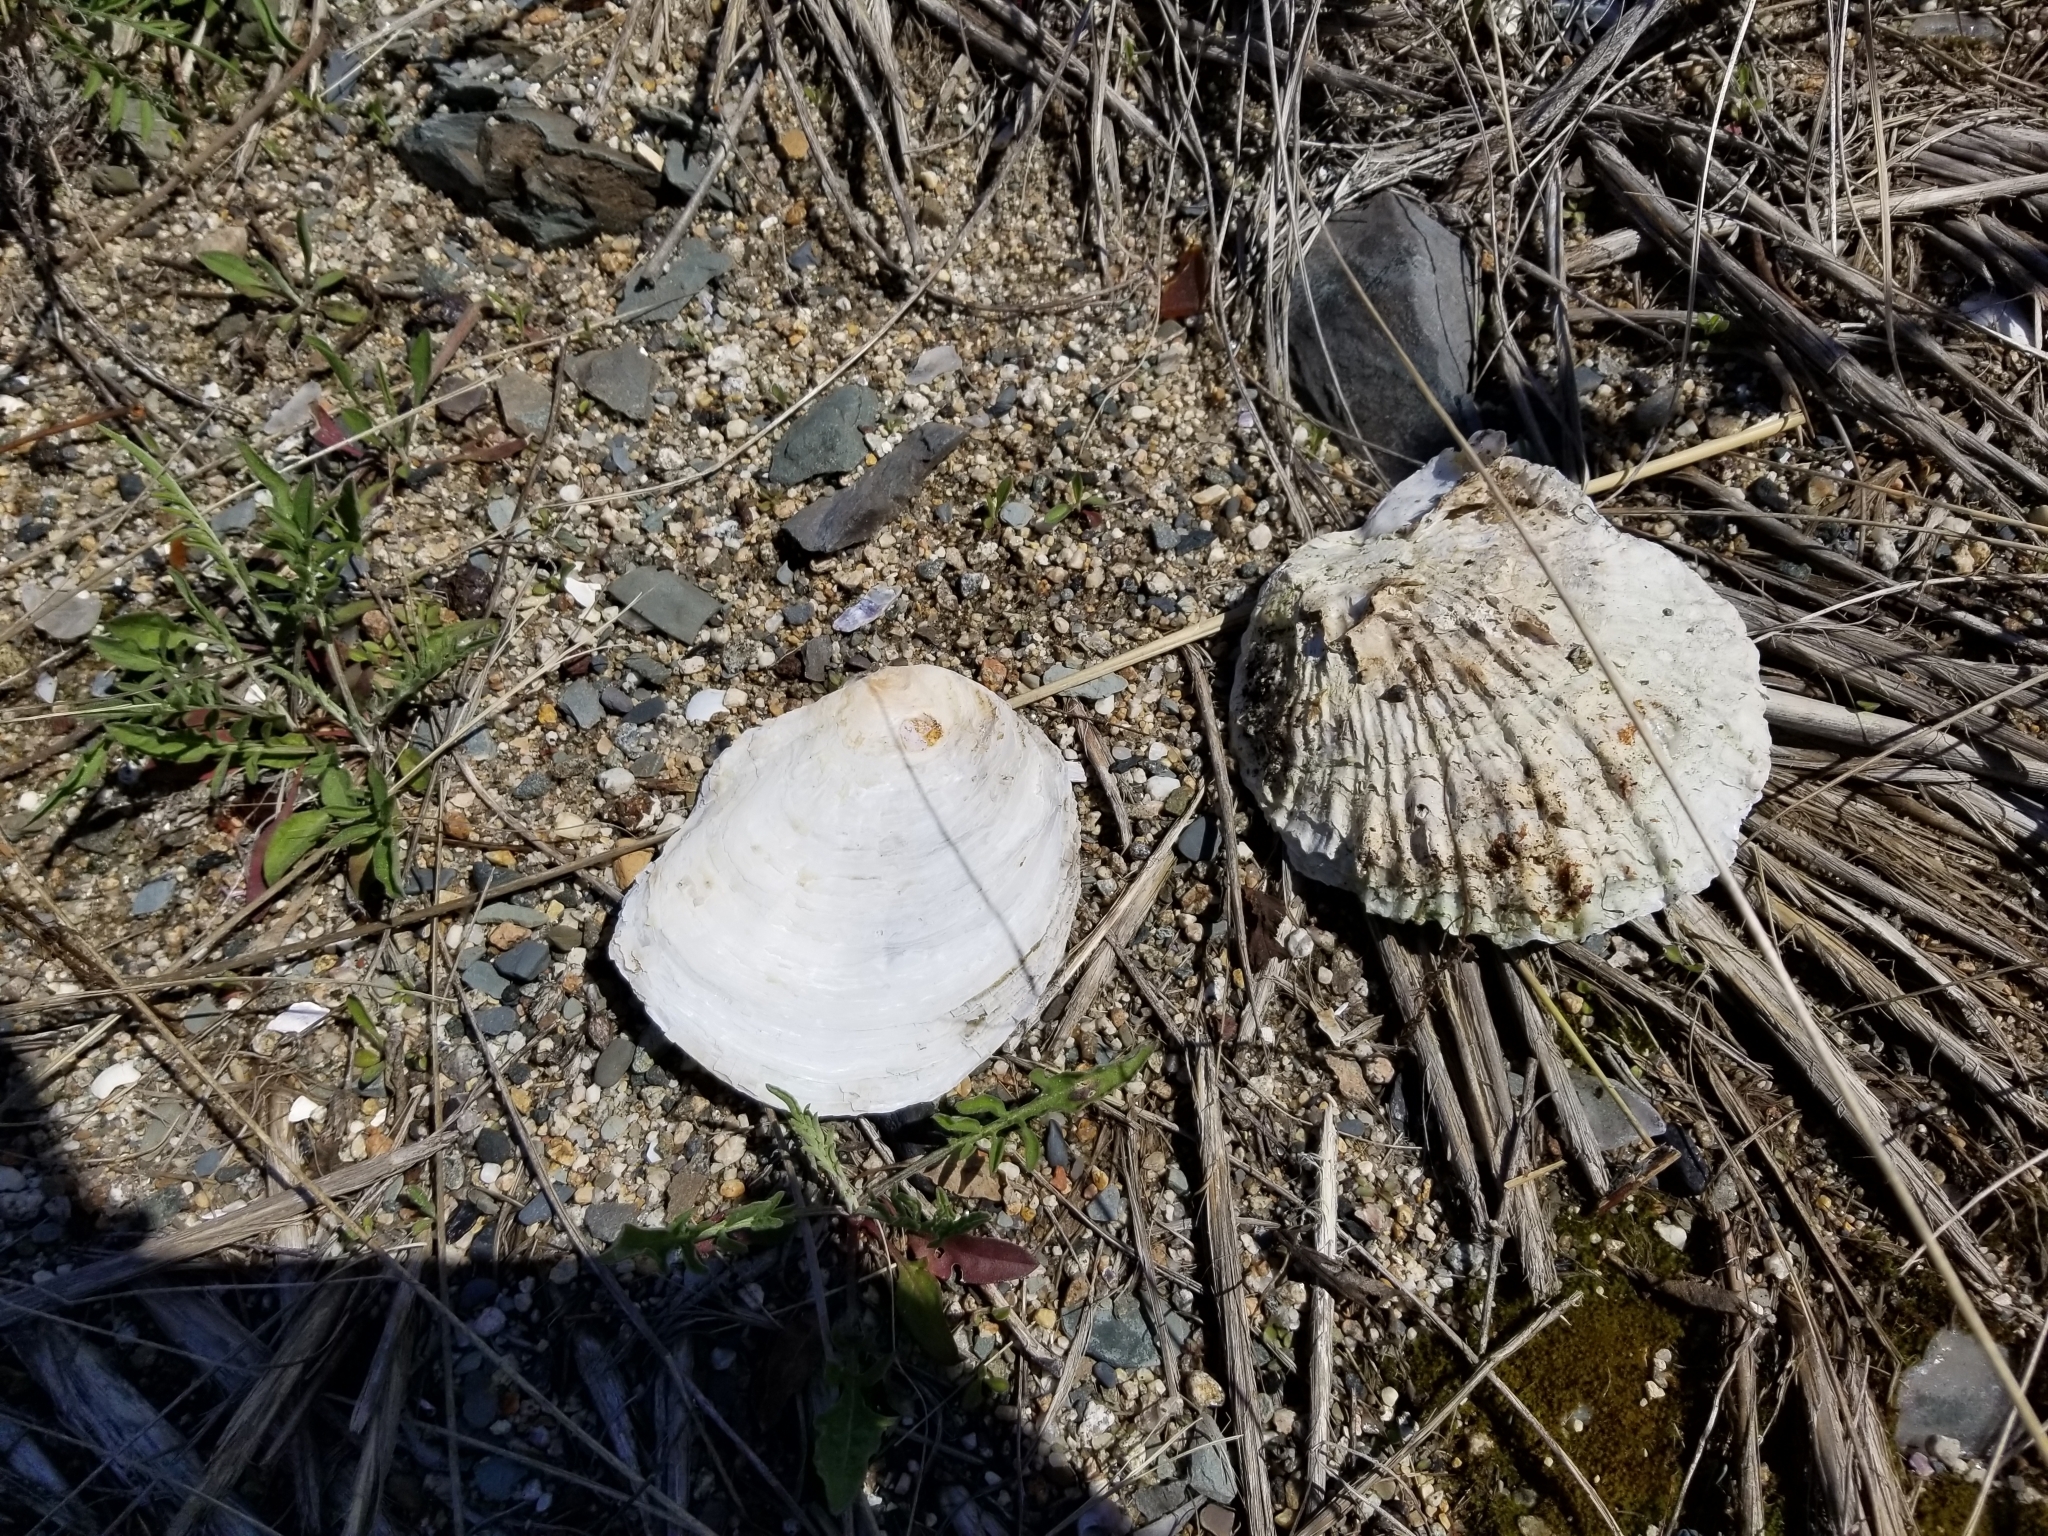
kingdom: Animalia
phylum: Mollusca
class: Bivalvia
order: Ostreida
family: Ostreidae
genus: Ostrea
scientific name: Ostrea edulis
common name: Flat oyster
